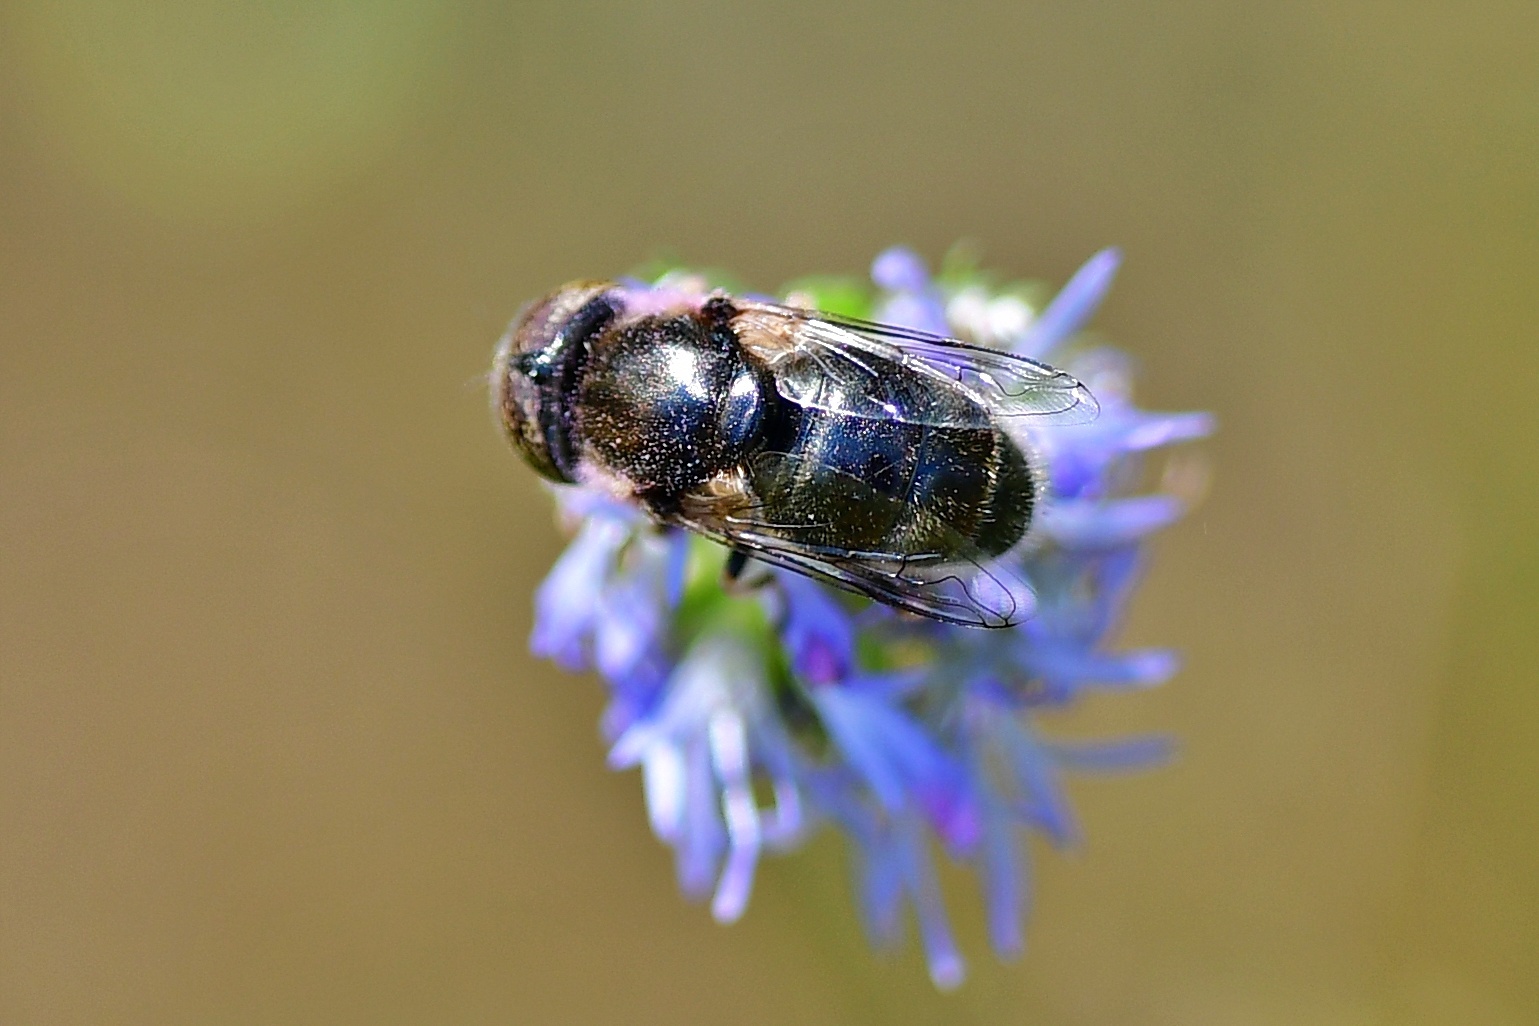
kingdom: Animalia
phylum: Arthropoda
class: Insecta
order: Diptera
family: Syrphidae
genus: Eristalinus
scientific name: Eristalinus aeneus
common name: Syrphid fly
